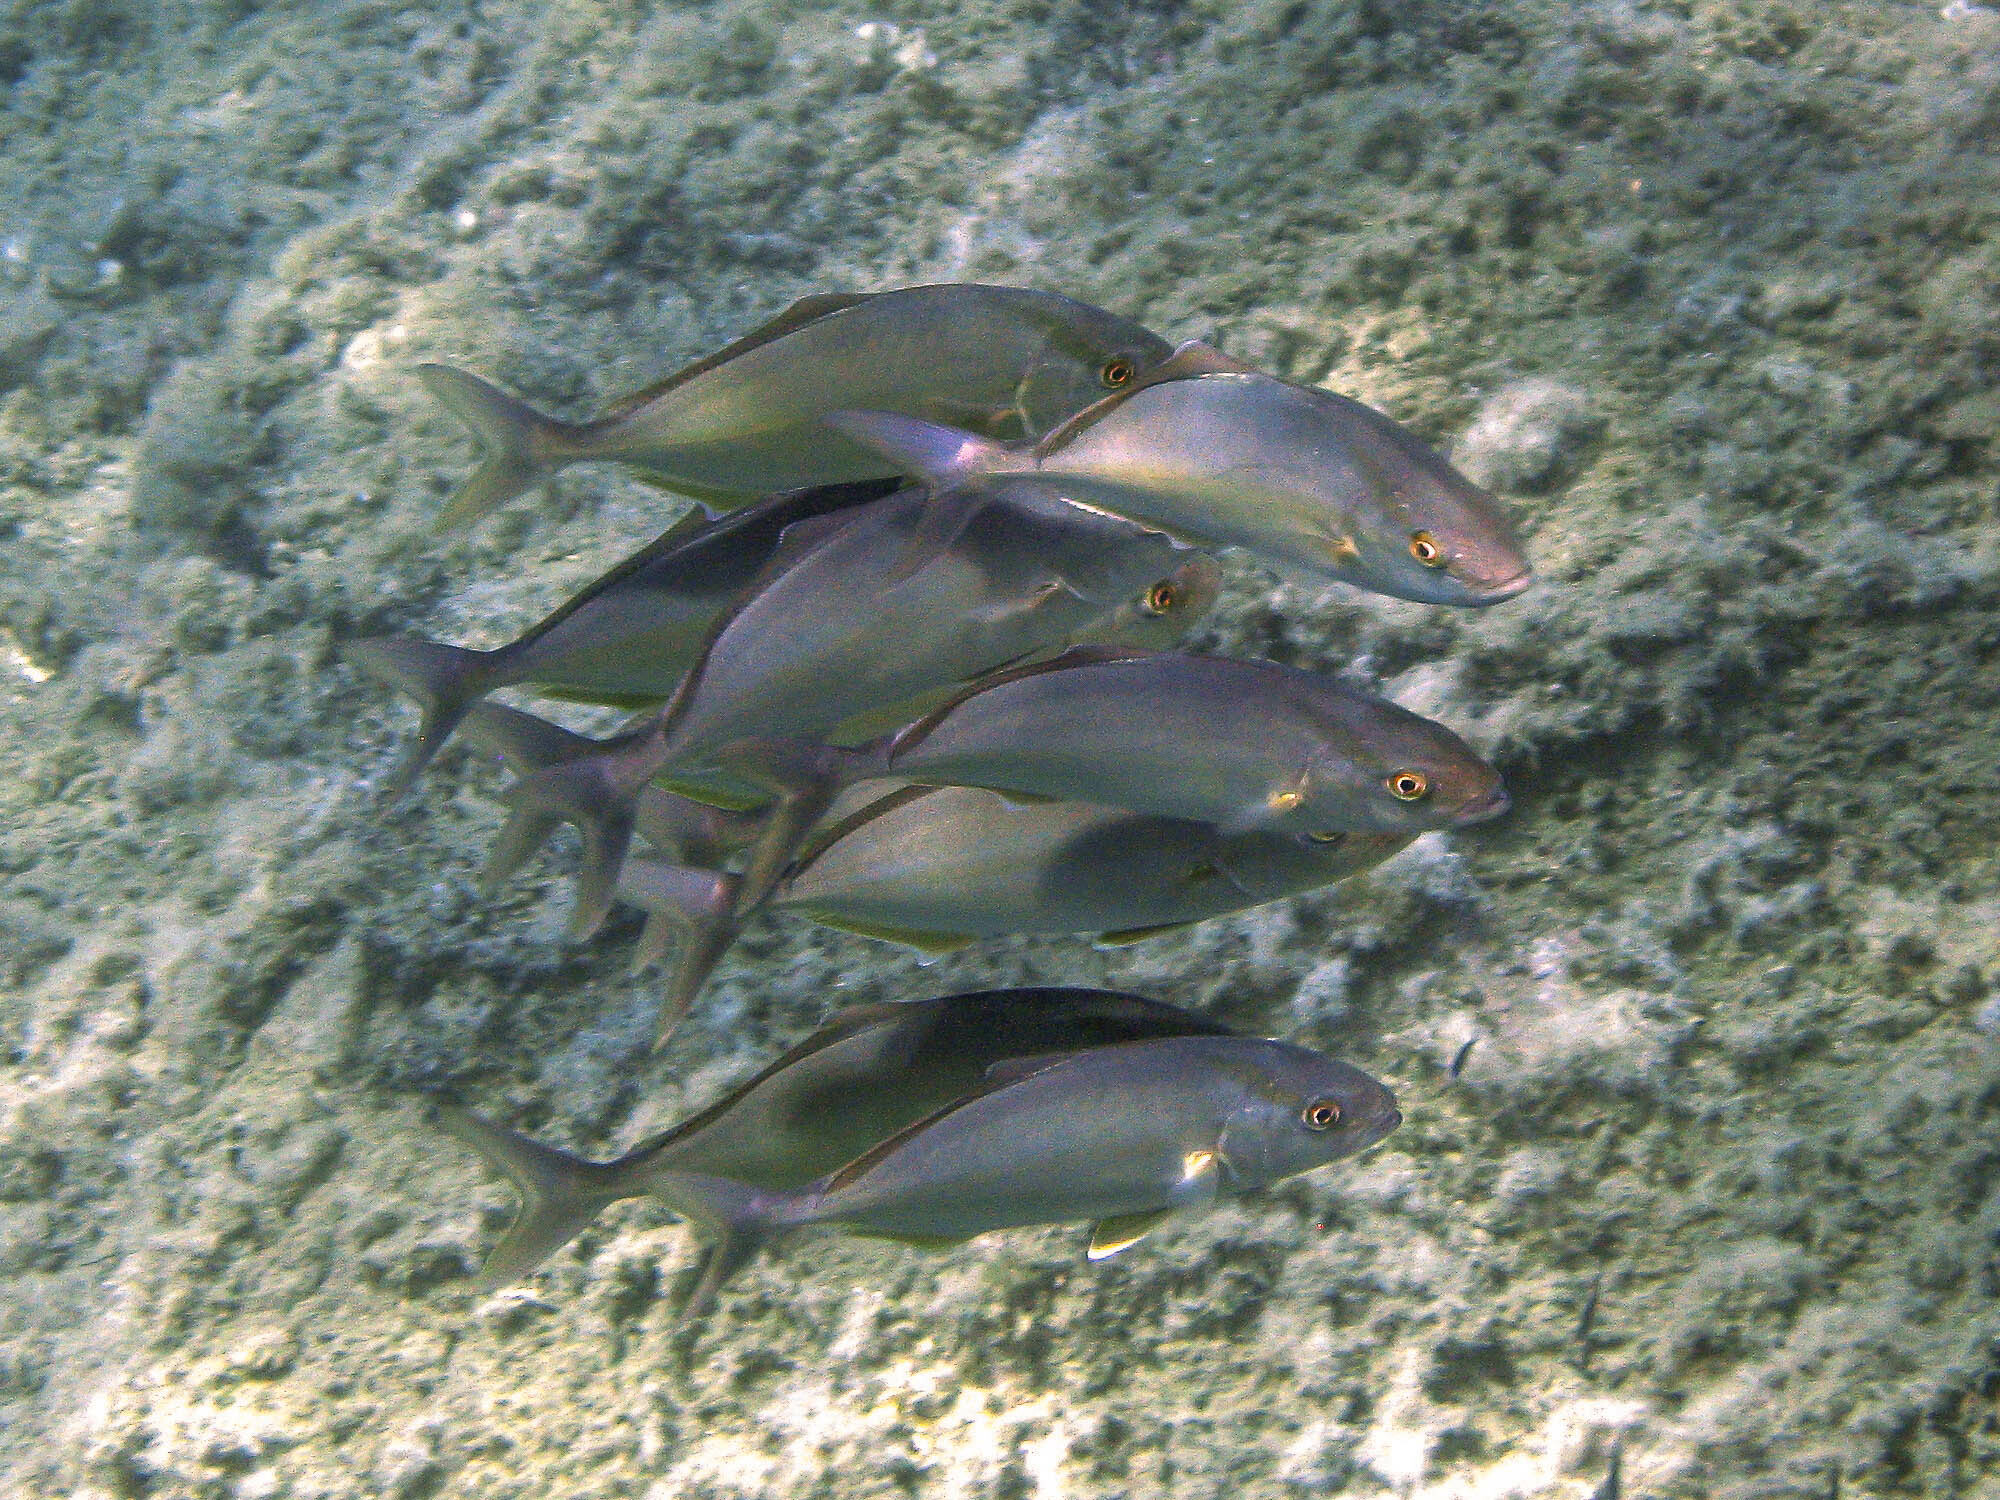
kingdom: Animalia
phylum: Chordata
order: Perciformes
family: Carangidae
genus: Seriola
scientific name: Seriola dumerili
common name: Greater amberjack
